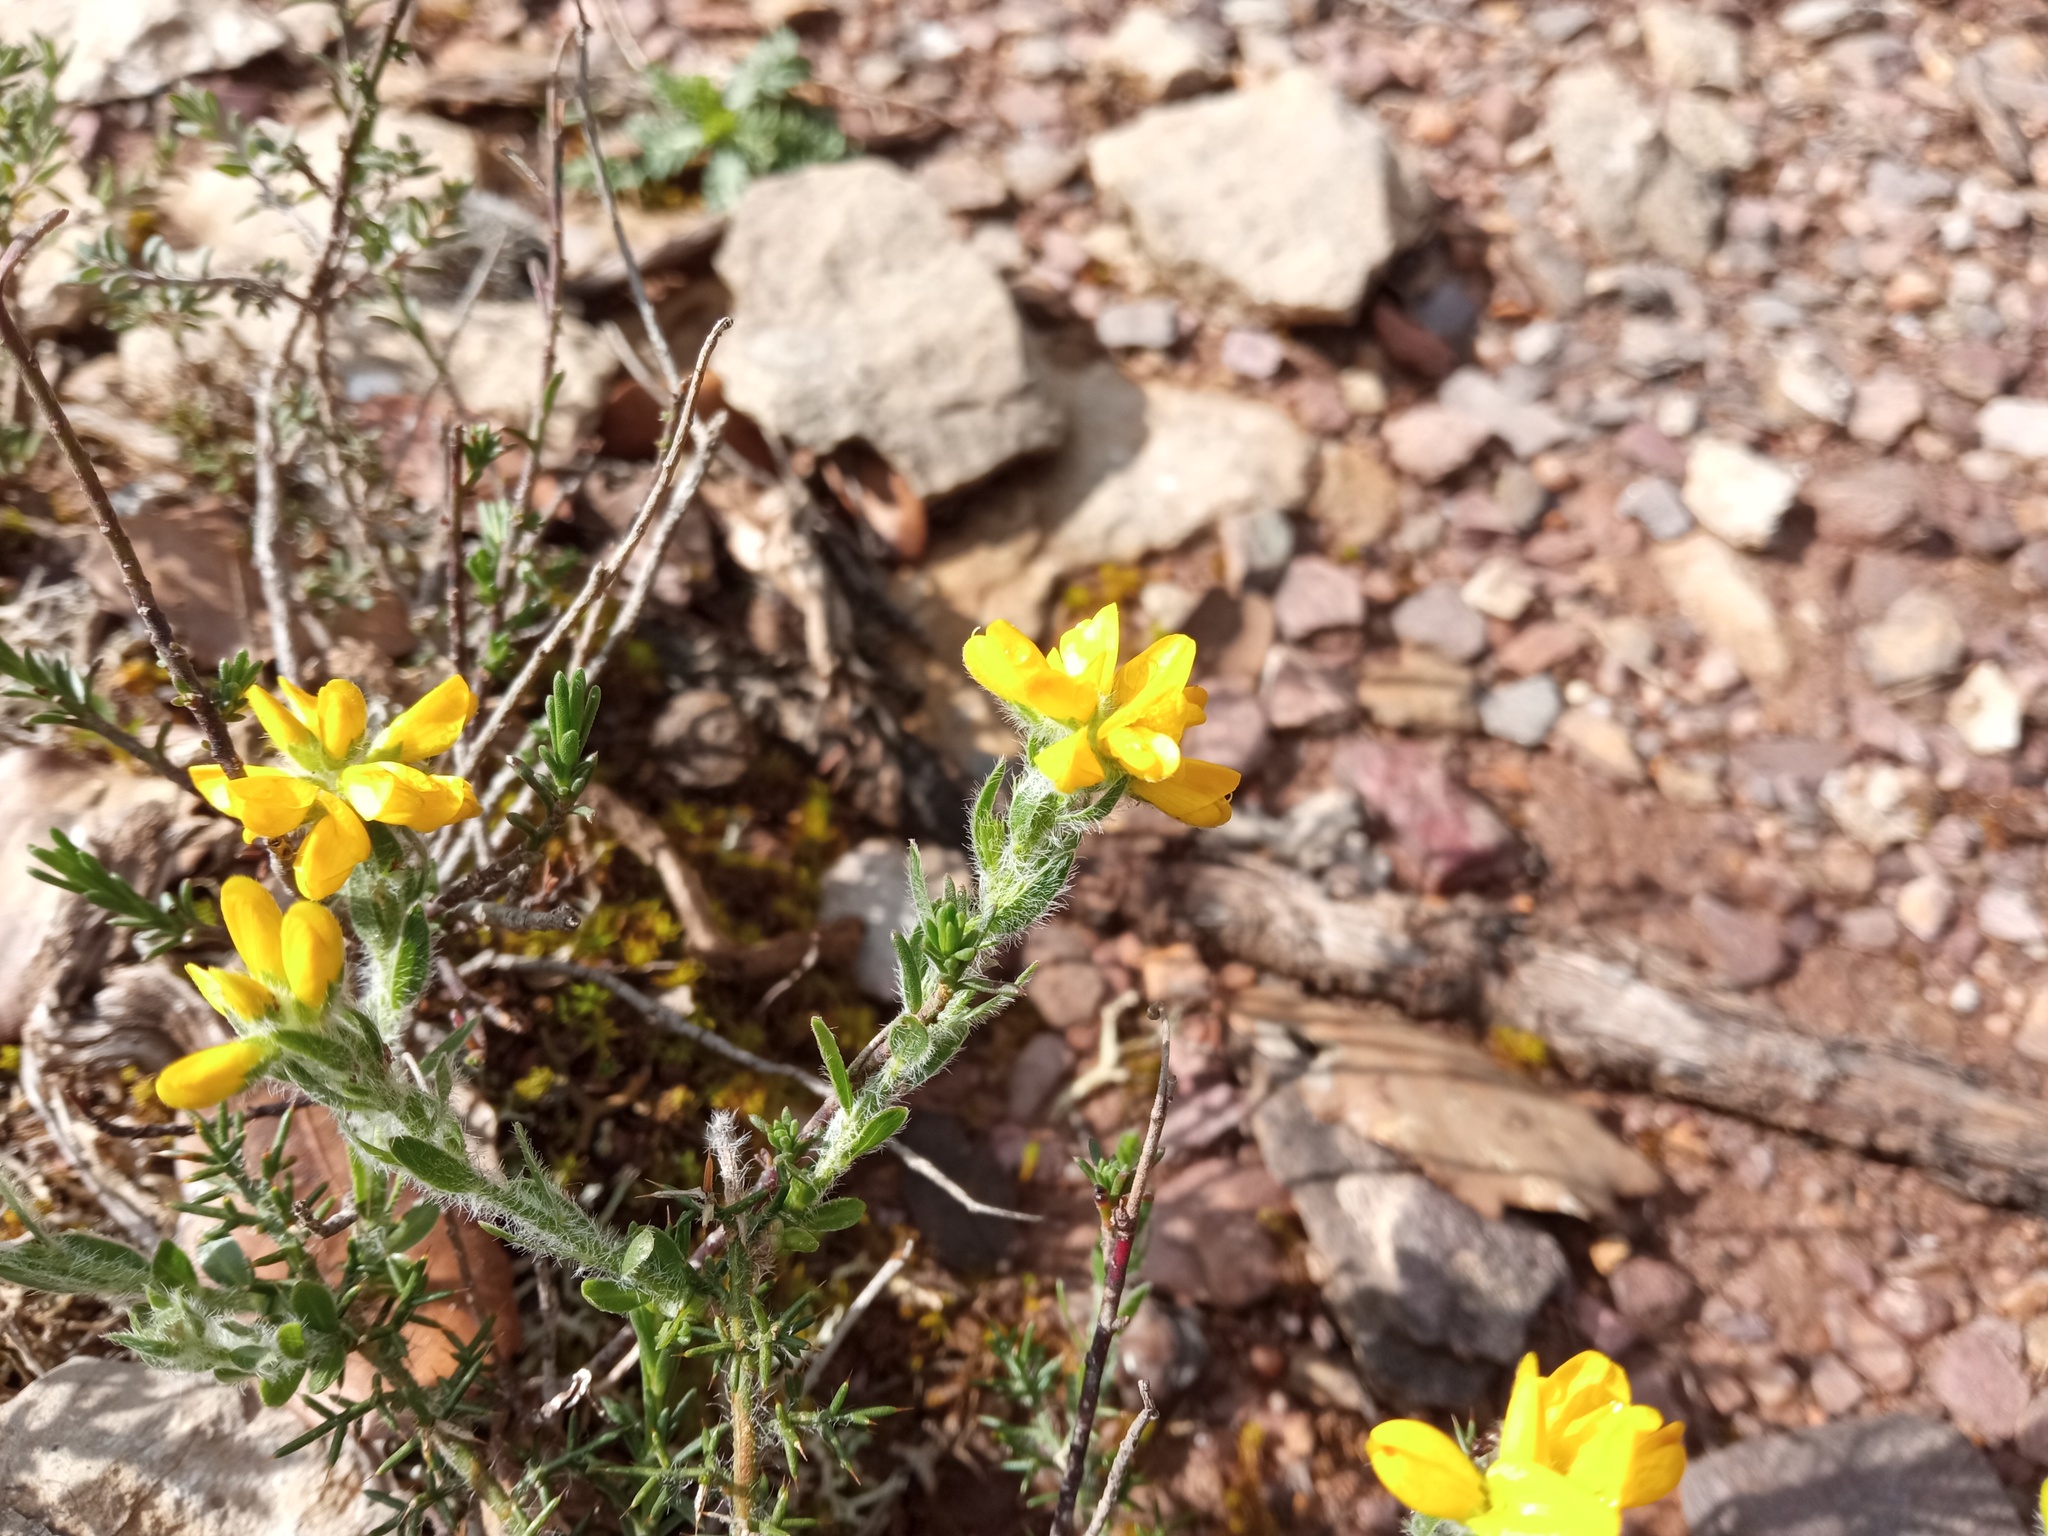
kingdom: Plantae
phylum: Tracheophyta
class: Magnoliopsida
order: Fabales
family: Fabaceae
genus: Genista
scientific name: Genista hispanica
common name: Spanish gorse
